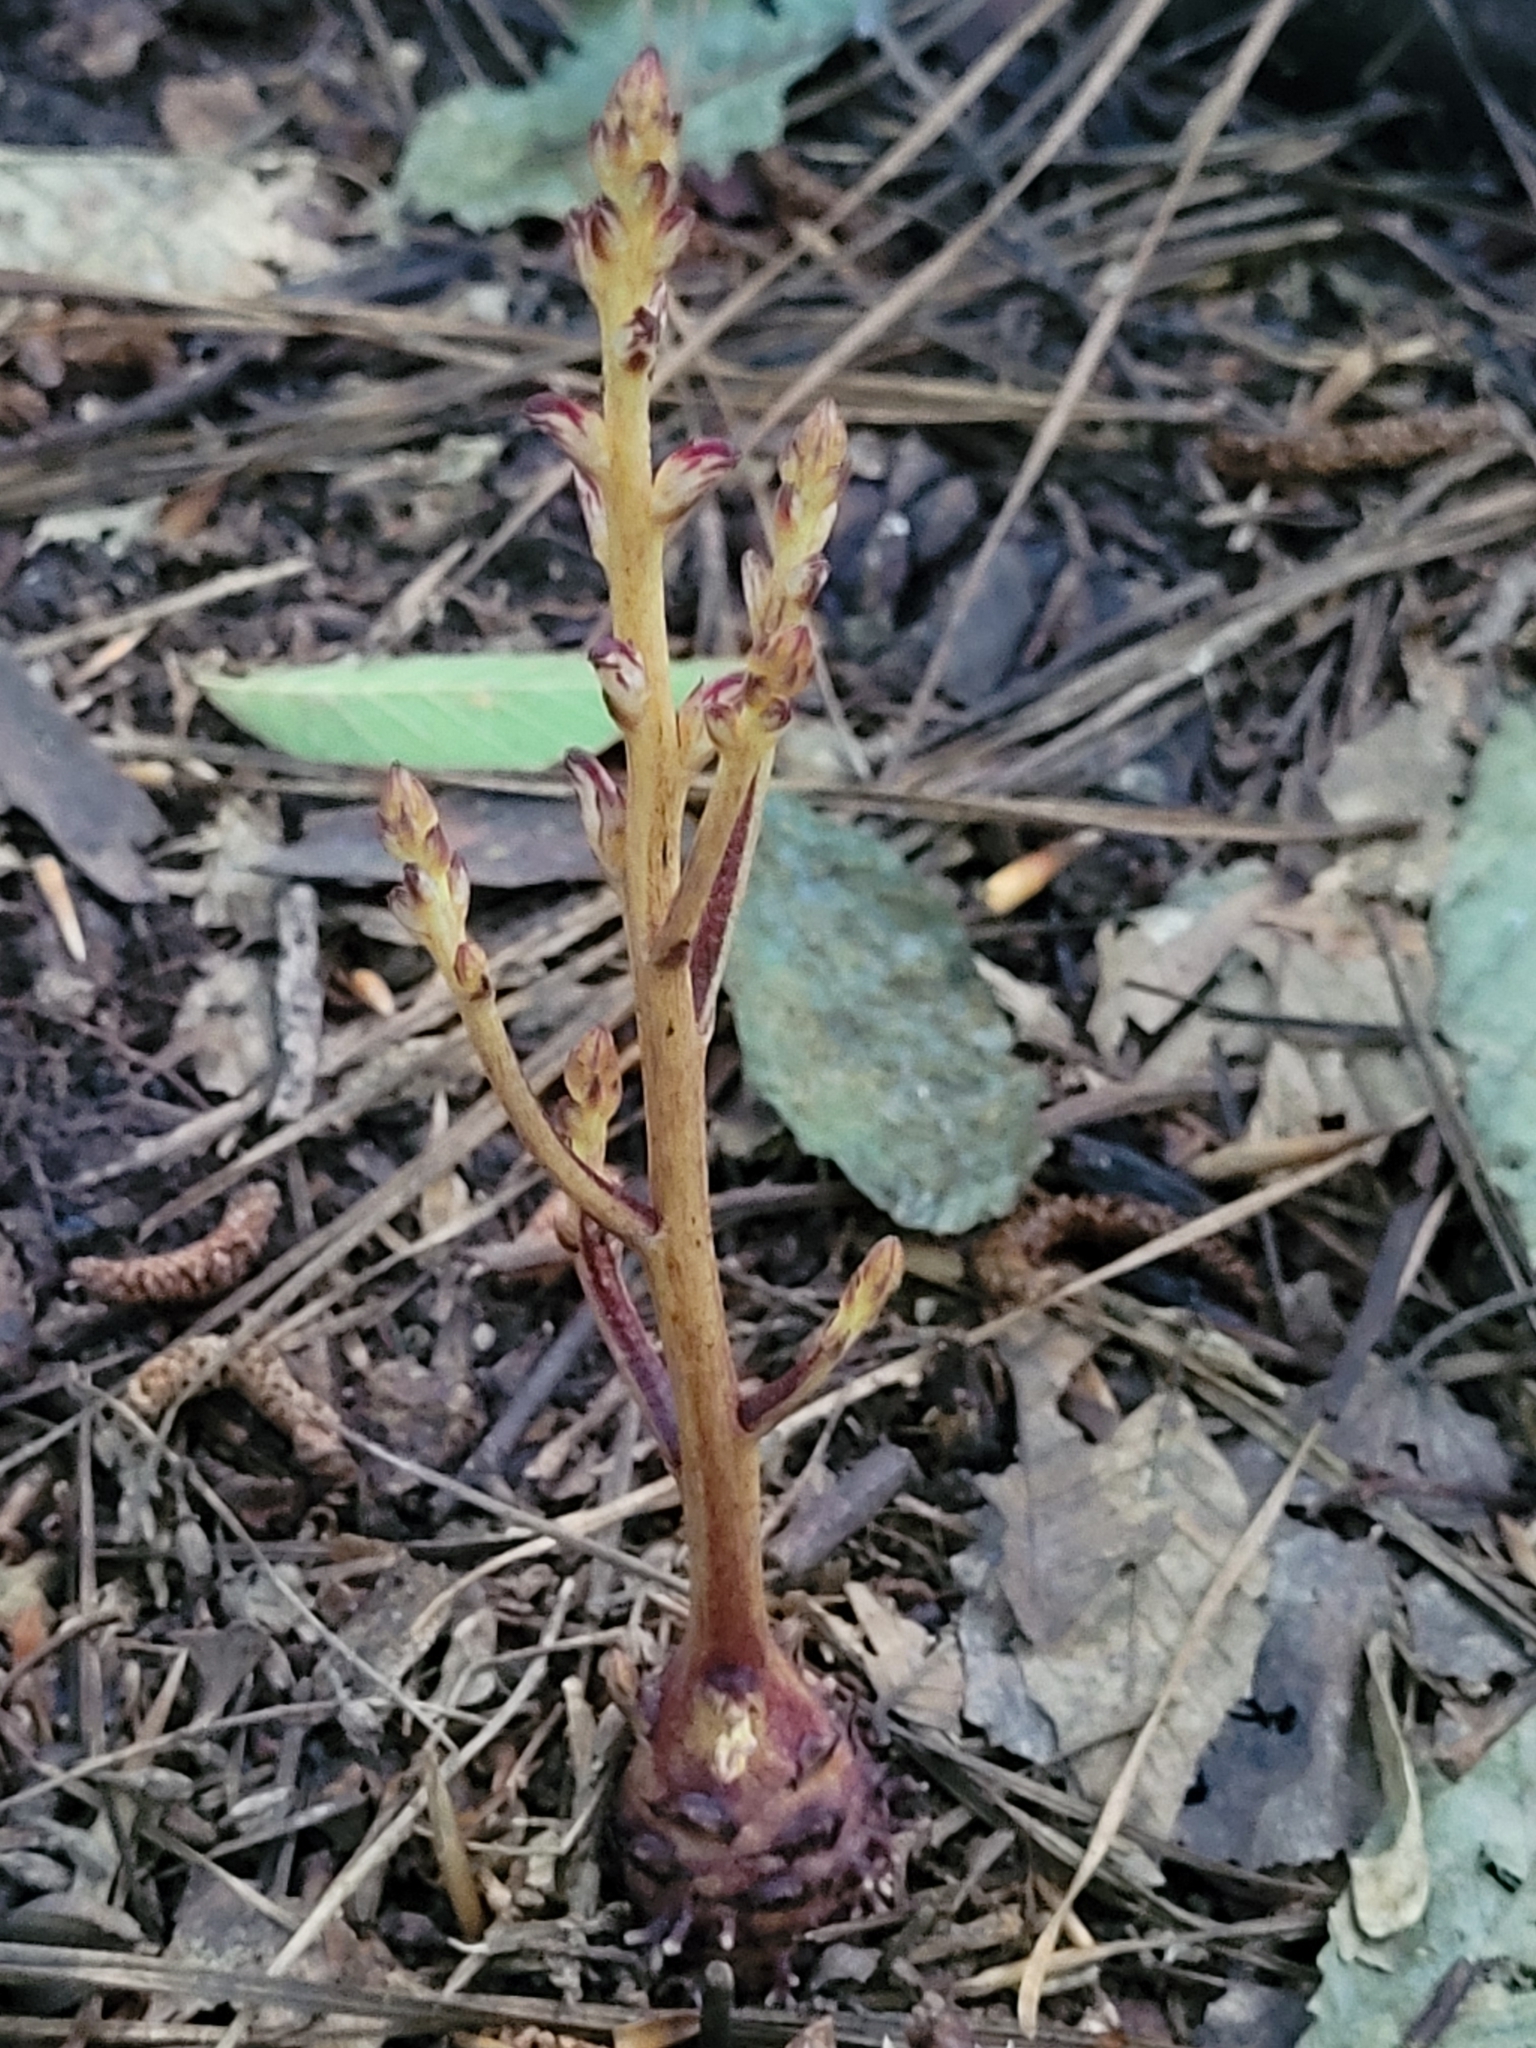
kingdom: Plantae
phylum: Tracheophyta
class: Magnoliopsida
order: Lamiales
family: Orobanchaceae
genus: Epifagus
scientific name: Epifagus virginiana
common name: Beechdrops
